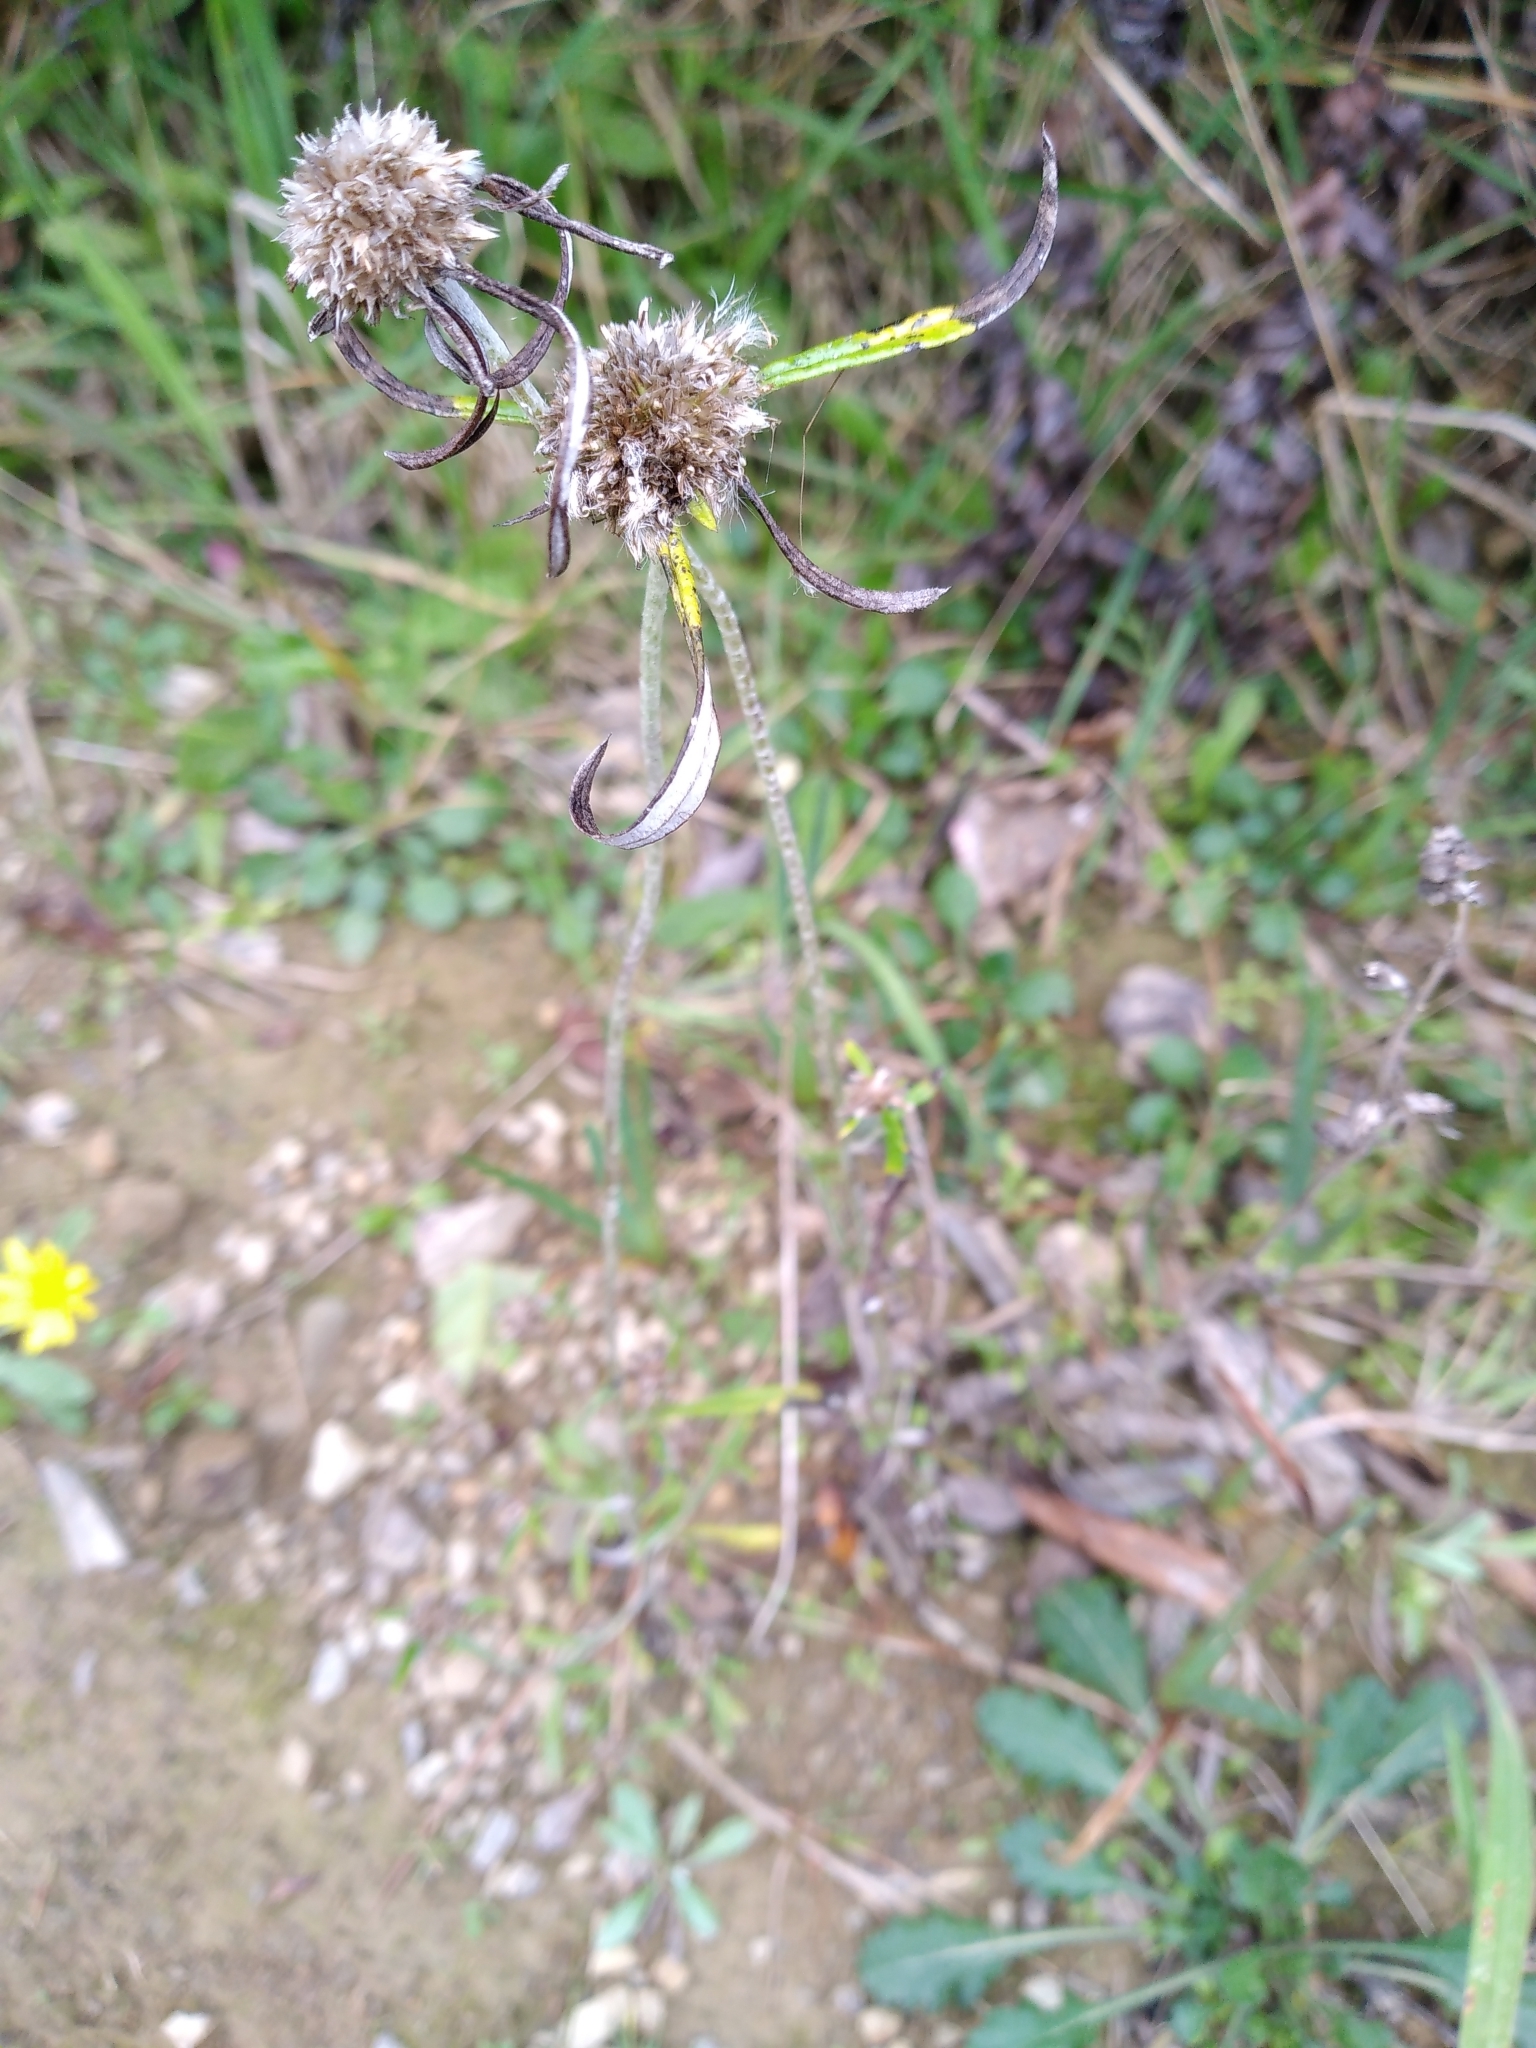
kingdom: Plantae
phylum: Tracheophyta
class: Magnoliopsida
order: Asterales
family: Asteraceae
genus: Euchiton
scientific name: Euchiton sphaericus
